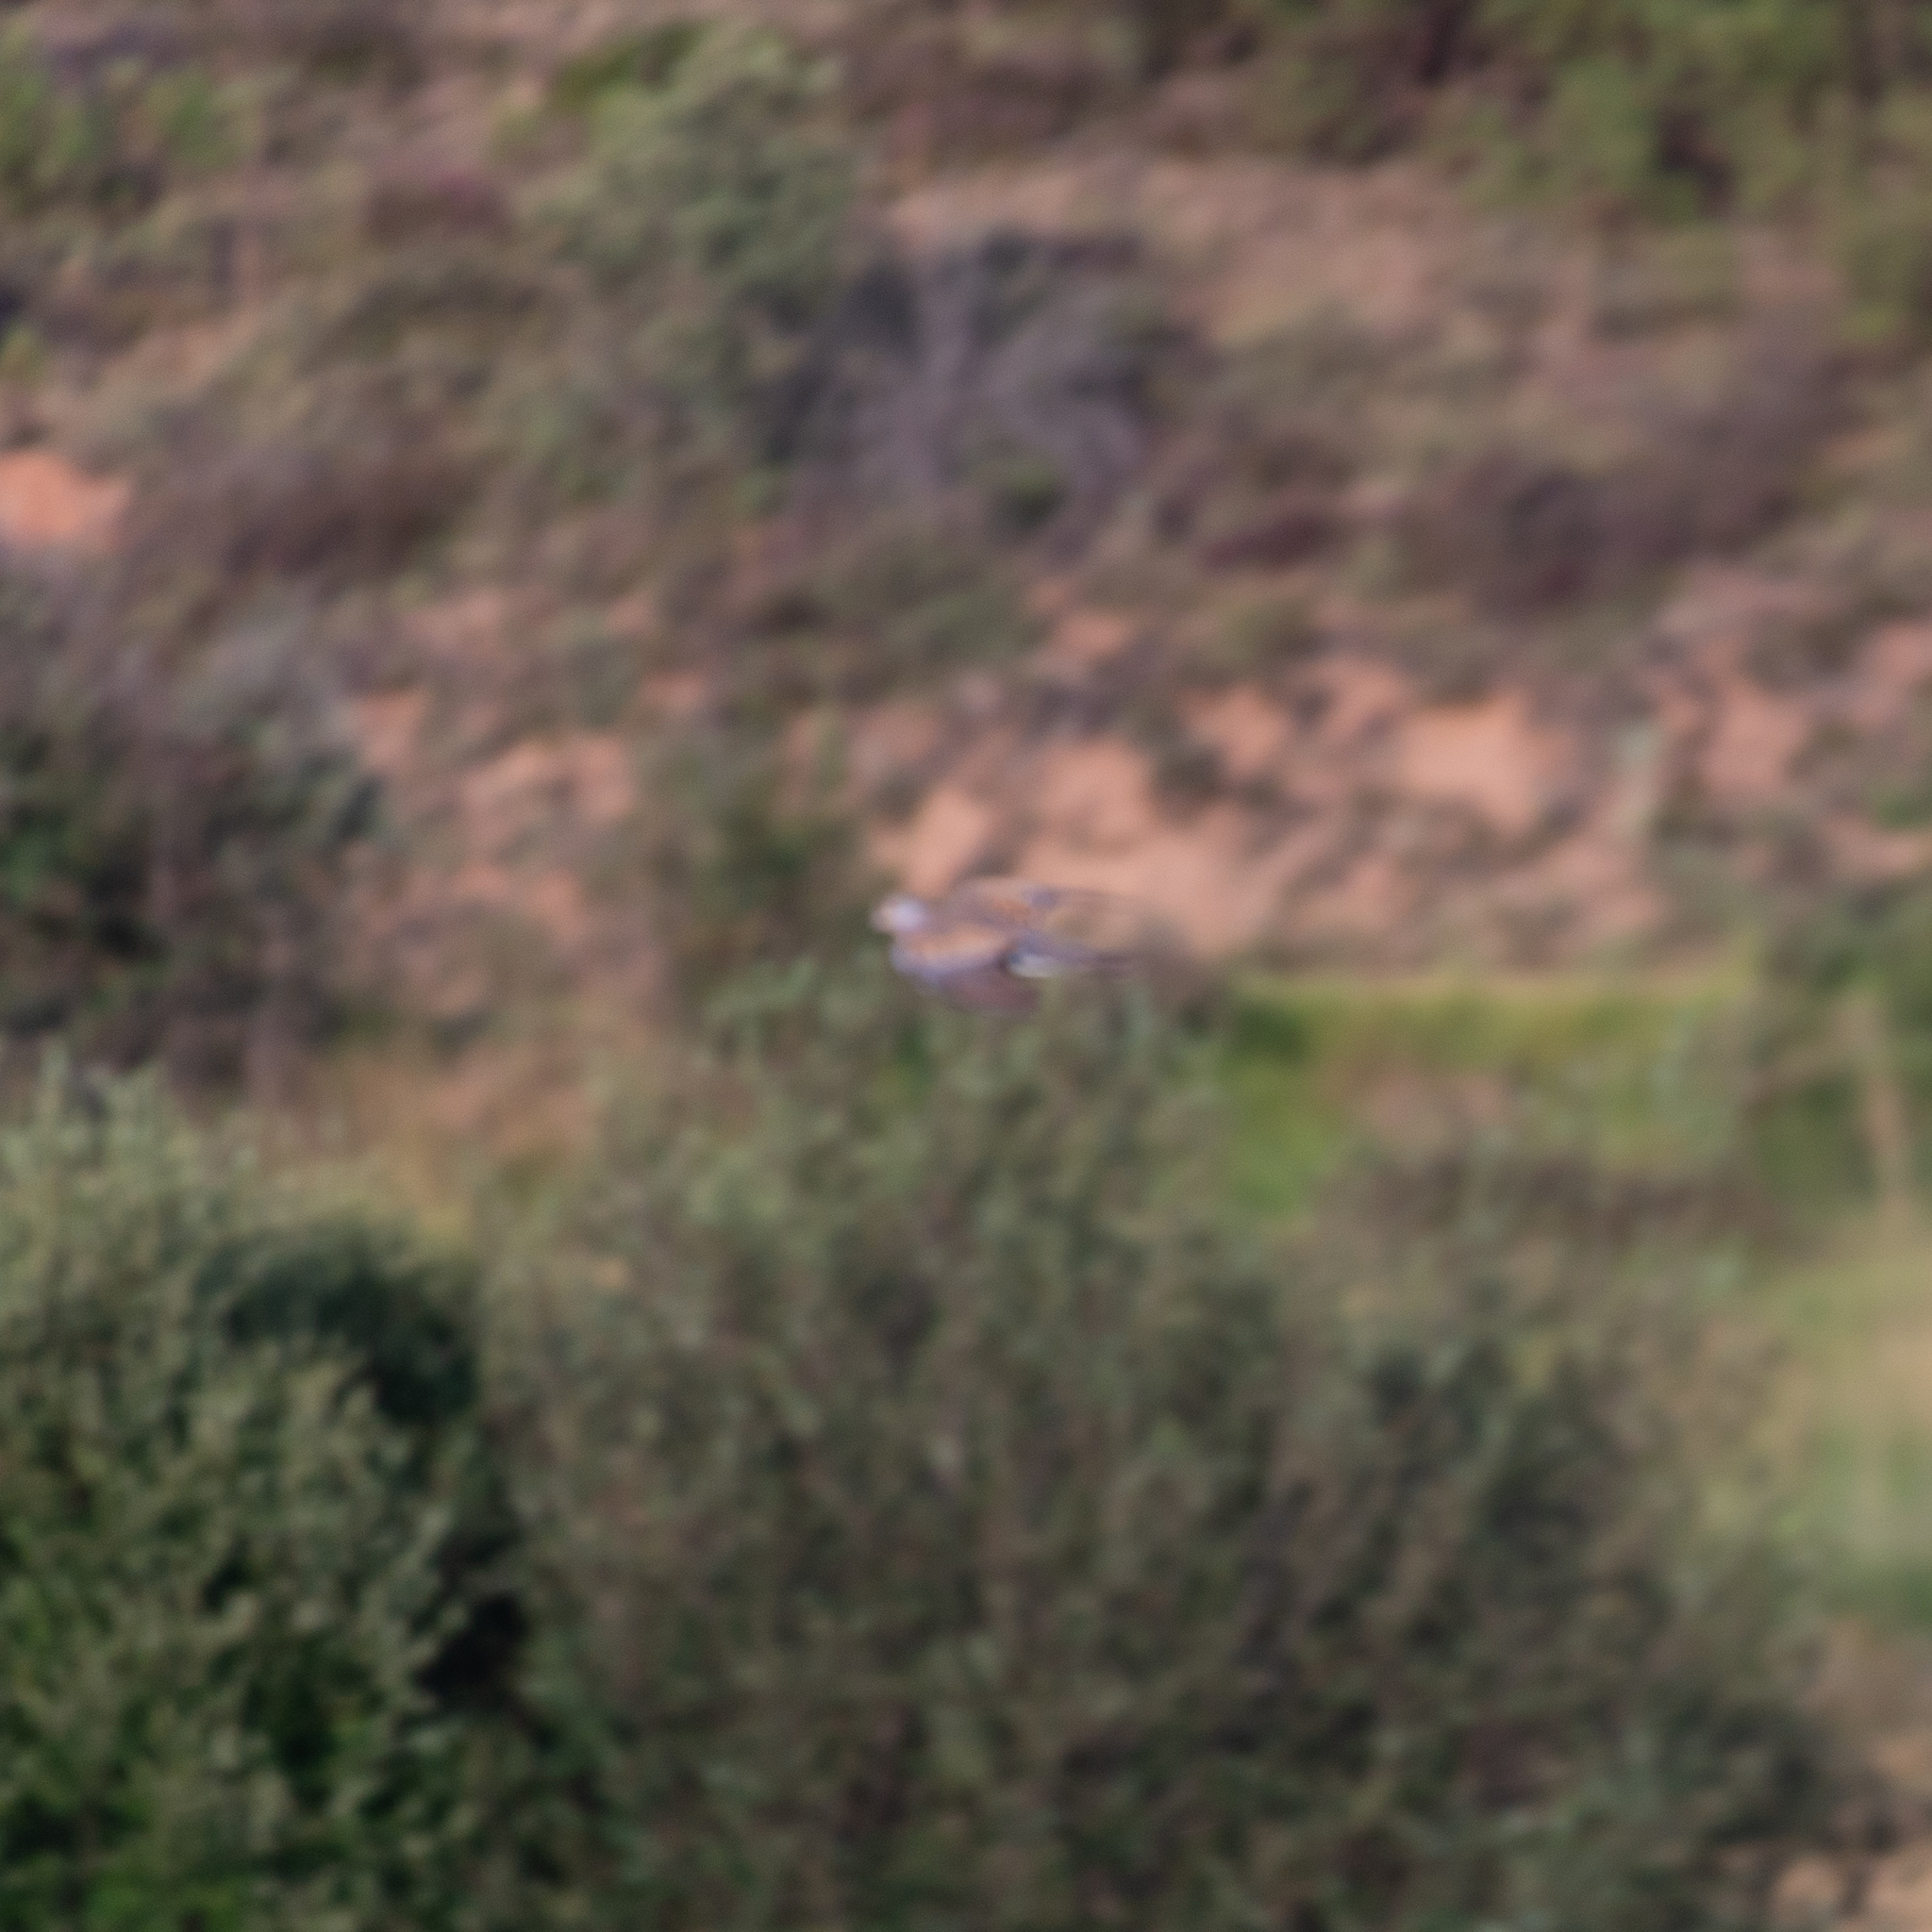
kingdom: Animalia
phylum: Chordata
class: Aves
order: Columbiformes
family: Columbidae
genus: Streptopelia
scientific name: Streptopelia turtur
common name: European turtle dove
